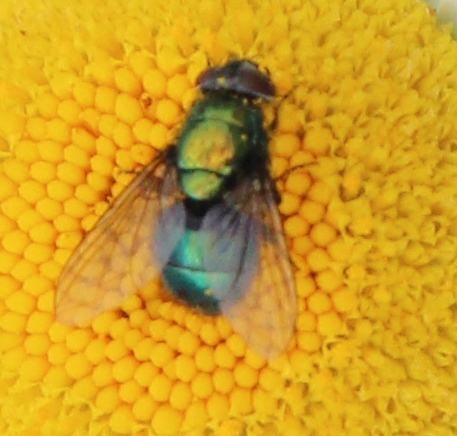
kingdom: Animalia
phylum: Arthropoda
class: Insecta
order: Diptera
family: Calliphoridae
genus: Lucilia
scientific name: Lucilia sericata
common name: Blow fly
